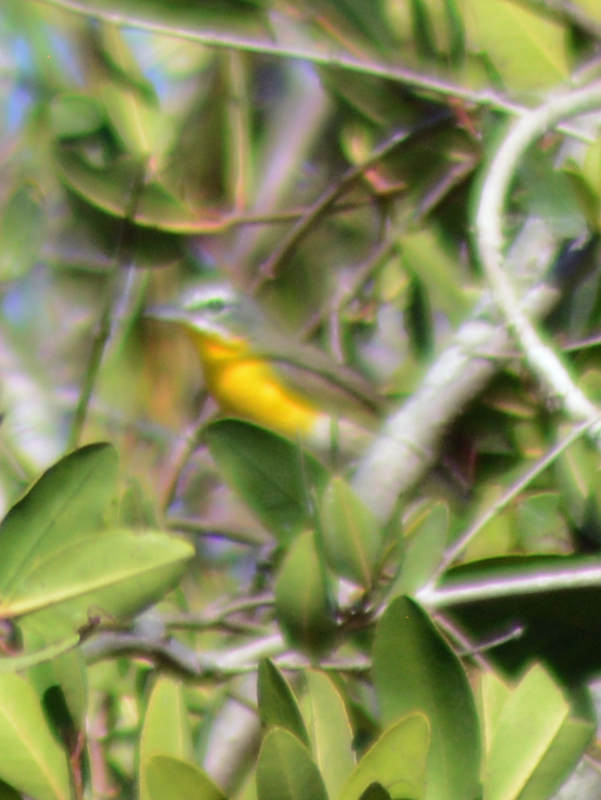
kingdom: Animalia
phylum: Chordata
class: Aves
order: Passeriformes
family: Parulidae
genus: Icteria
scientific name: Icteria virens
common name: Yellow-breasted chat
